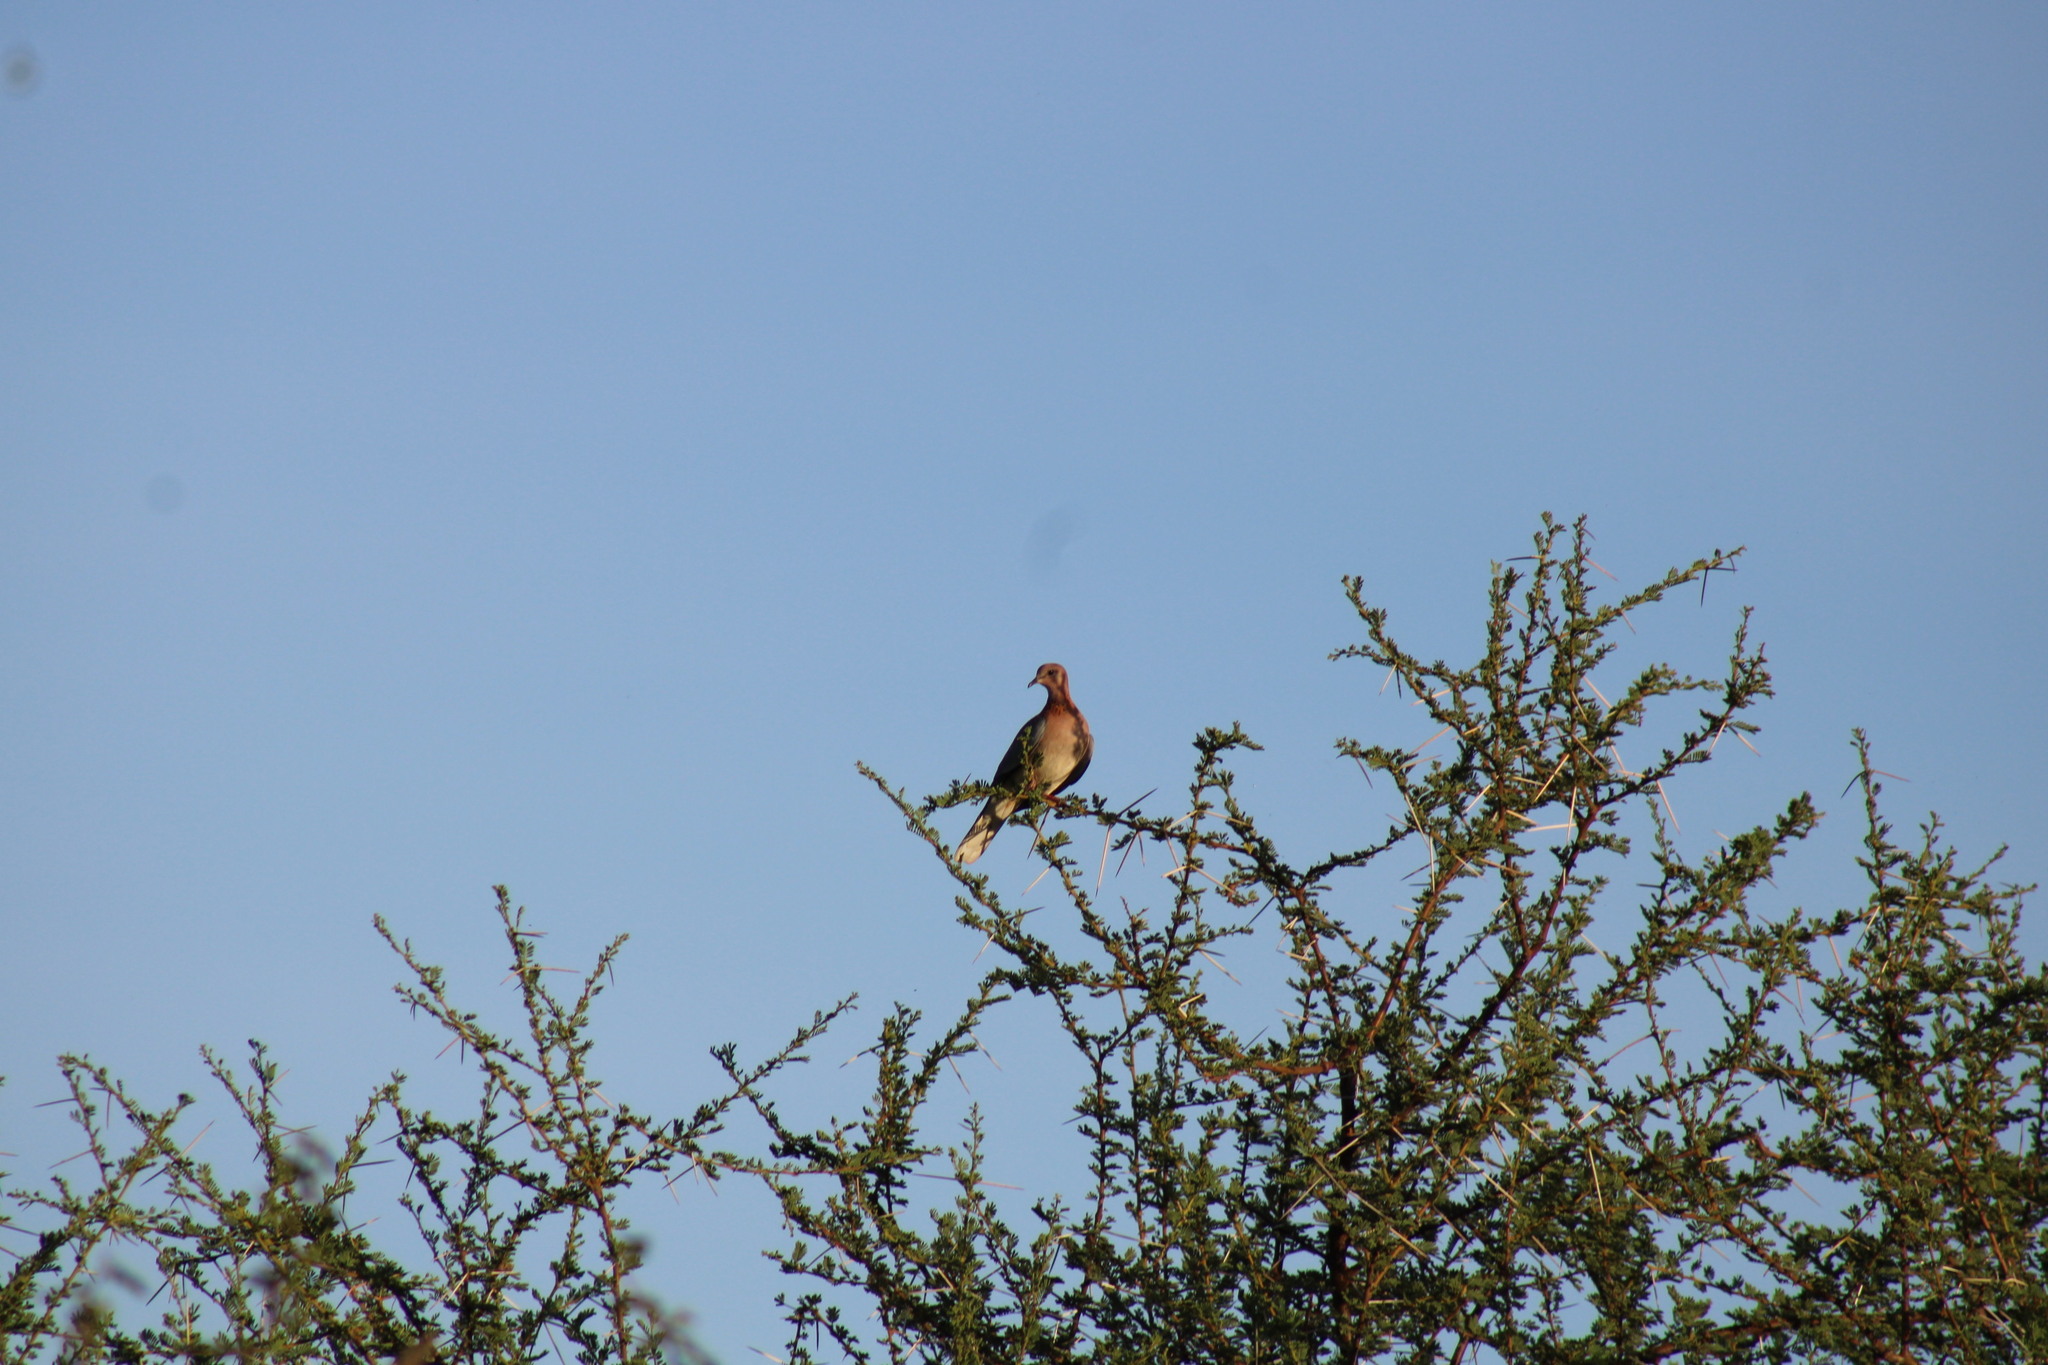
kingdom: Animalia
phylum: Chordata
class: Aves
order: Columbiformes
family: Columbidae
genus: Spilopelia
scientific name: Spilopelia senegalensis
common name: Laughing dove
